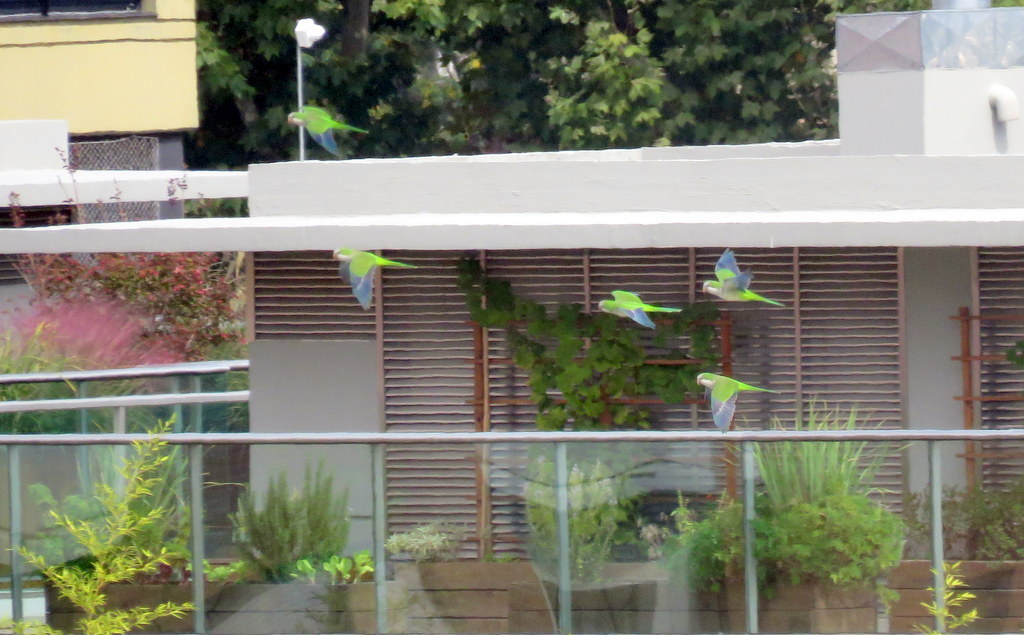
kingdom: Animalia
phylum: Chordata
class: Aves
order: Psittaciformes
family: Psittacidae
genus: Myiopsitta
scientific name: Myiopsitta monachus
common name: Monk parakeet
